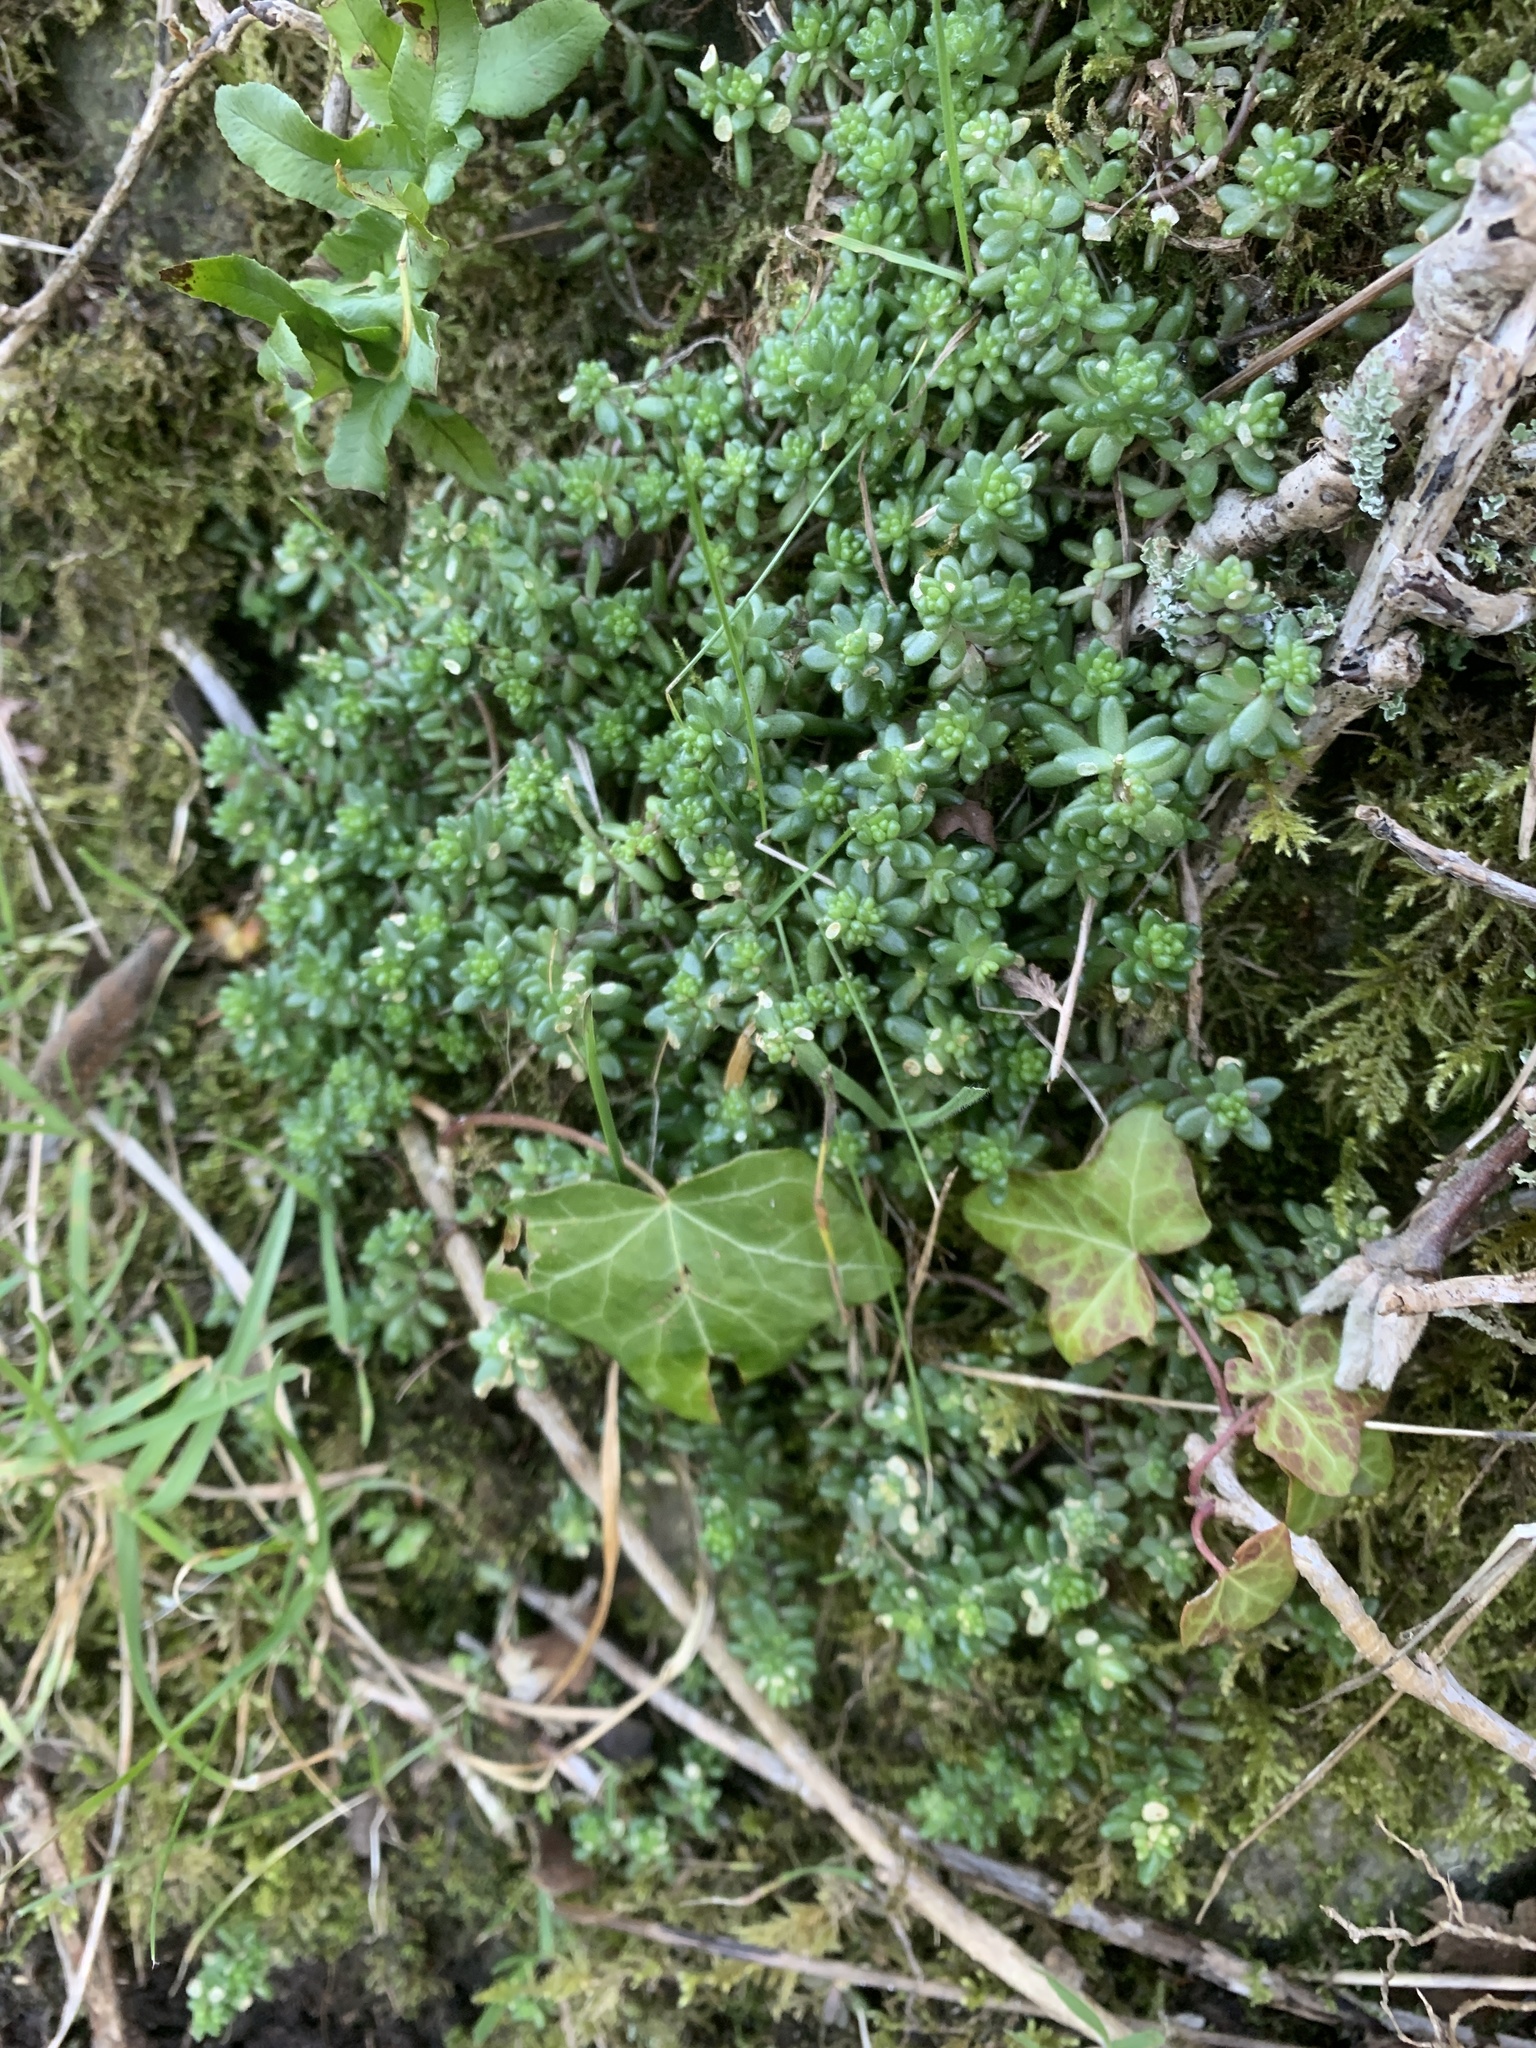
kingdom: Plantae
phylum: Tracheophyta
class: Magnoliopsida
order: Saxifragales
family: Crassulaceae
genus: Sedum
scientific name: Sedum album
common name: White stonecrop
